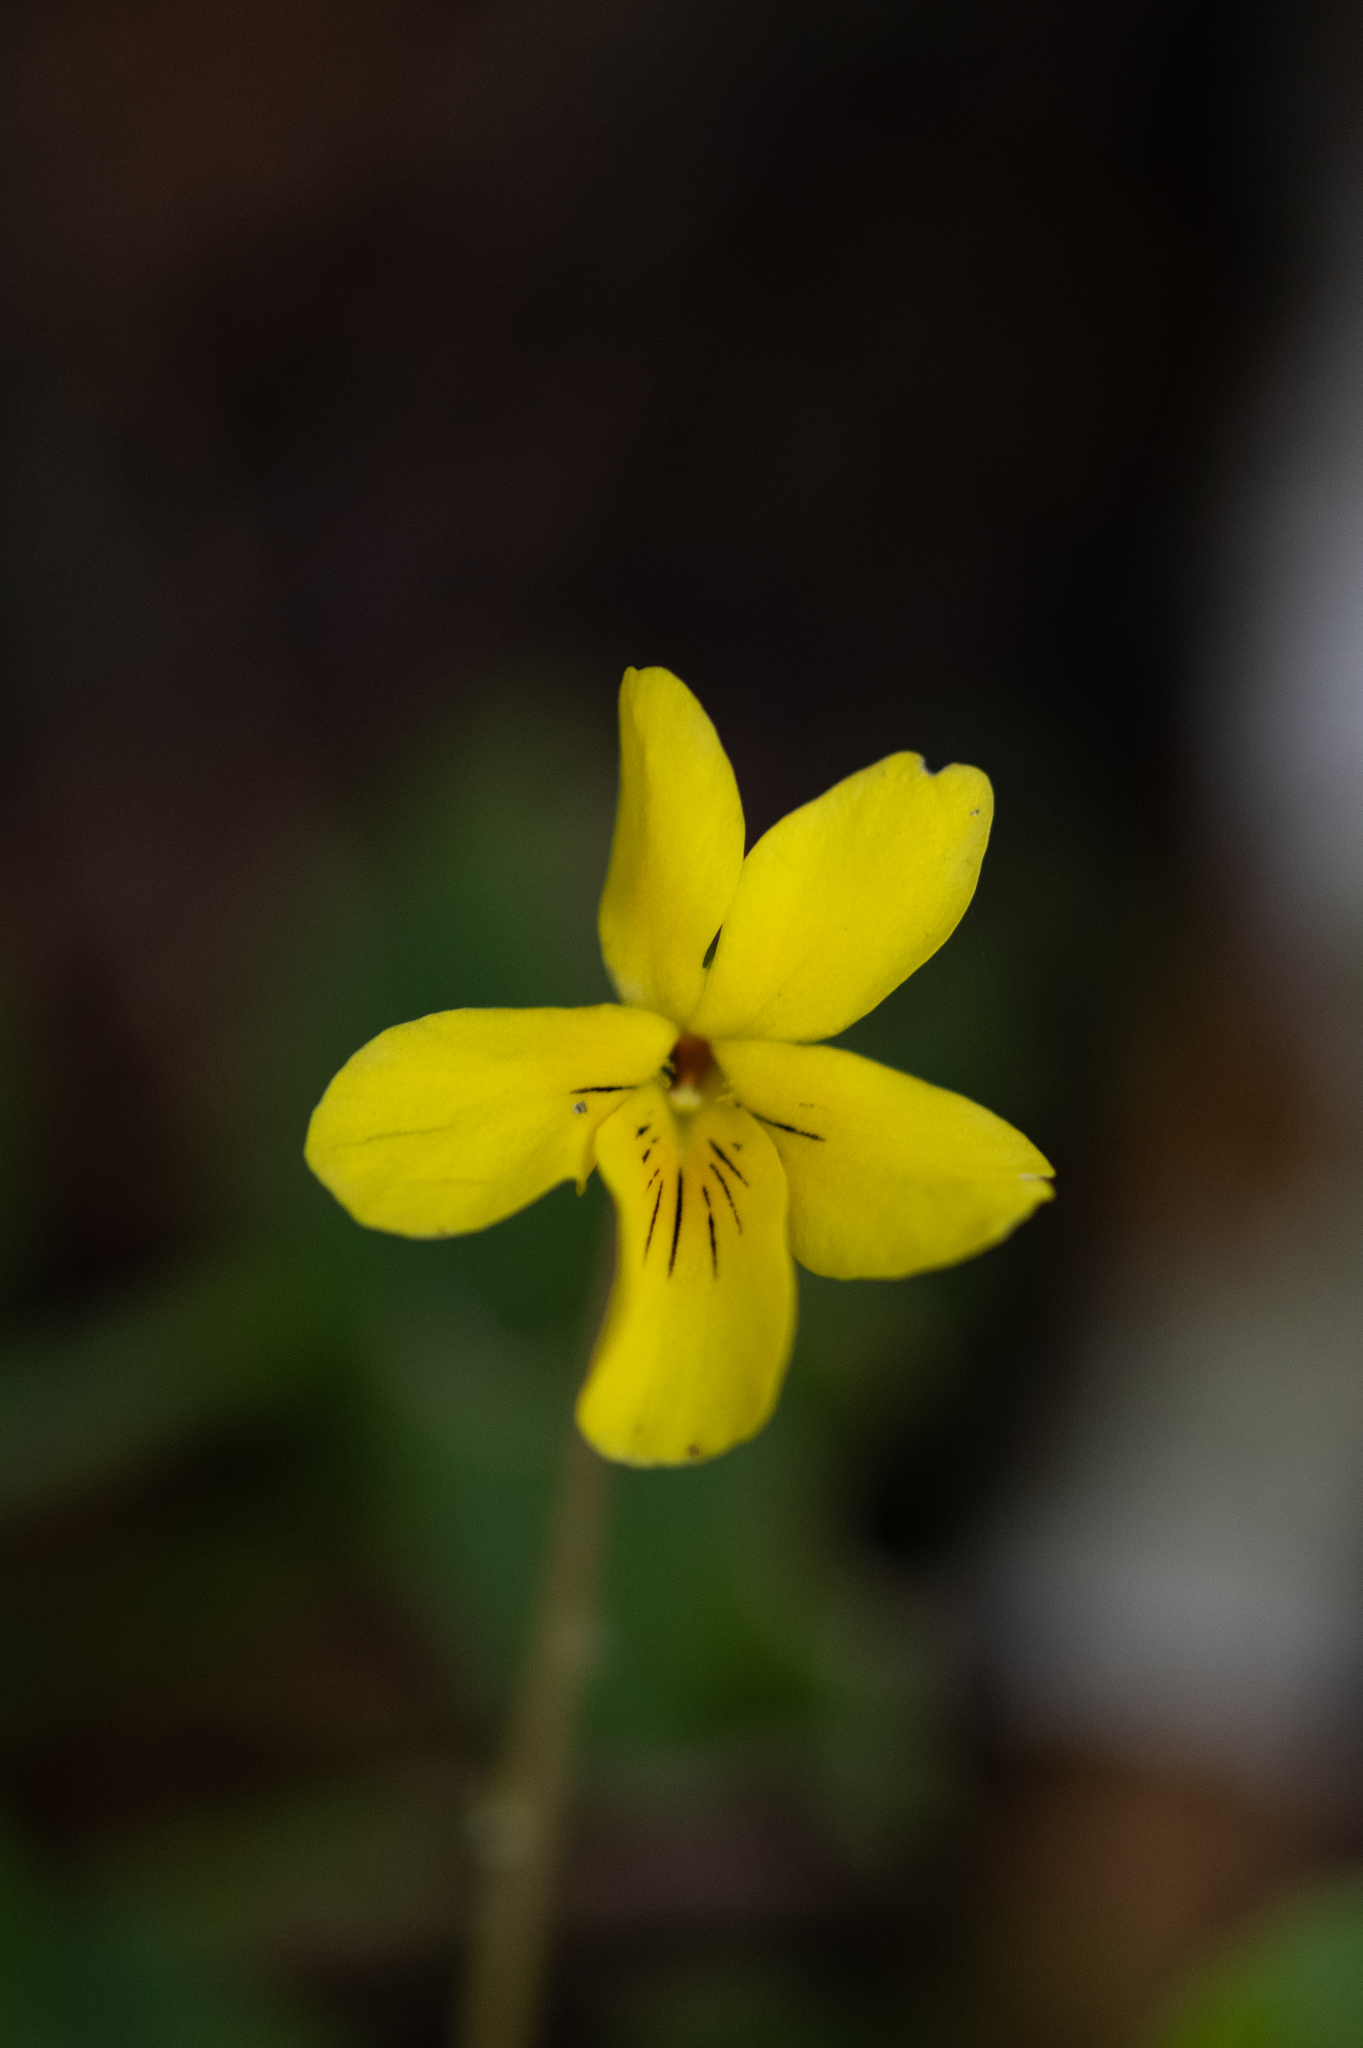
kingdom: Plantae
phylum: Tracheophyta
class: Magnoliopsida
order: Malpighiales
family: Violaceae
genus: Viola
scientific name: Viola sempervirens
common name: Evergreen violet
